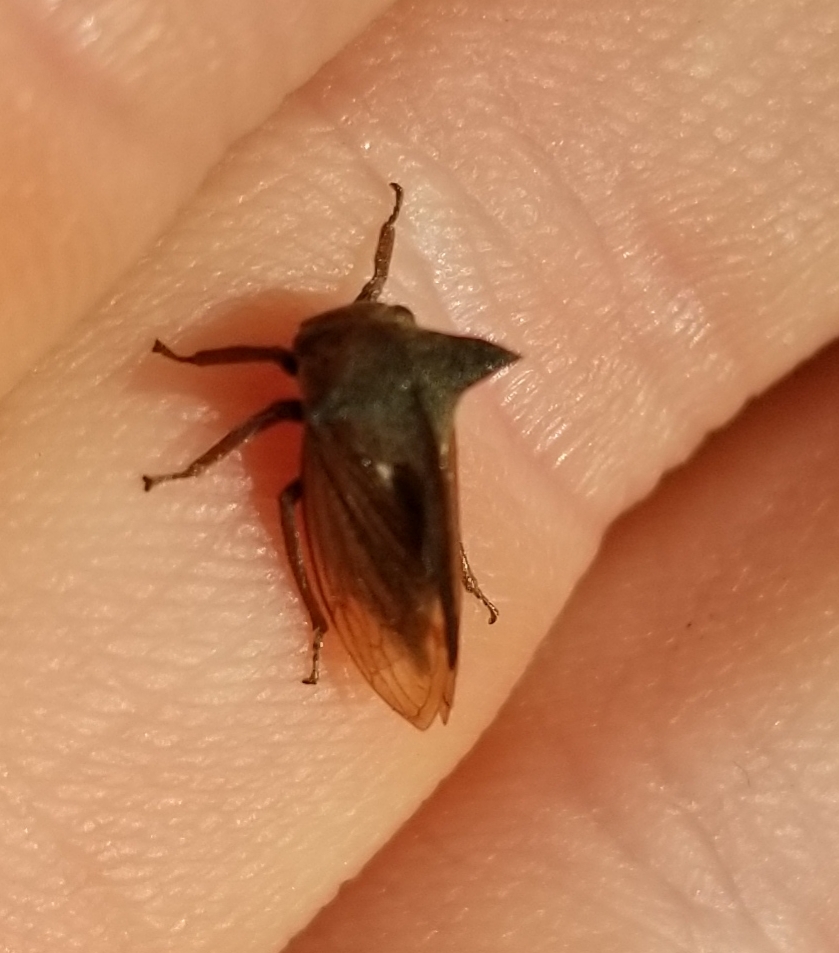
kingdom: Animalia
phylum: Arthropoda
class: Insecta
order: Hemiptera
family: Membracidae
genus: Centrotus
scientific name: Centrotus cornuta
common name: Treehopper
